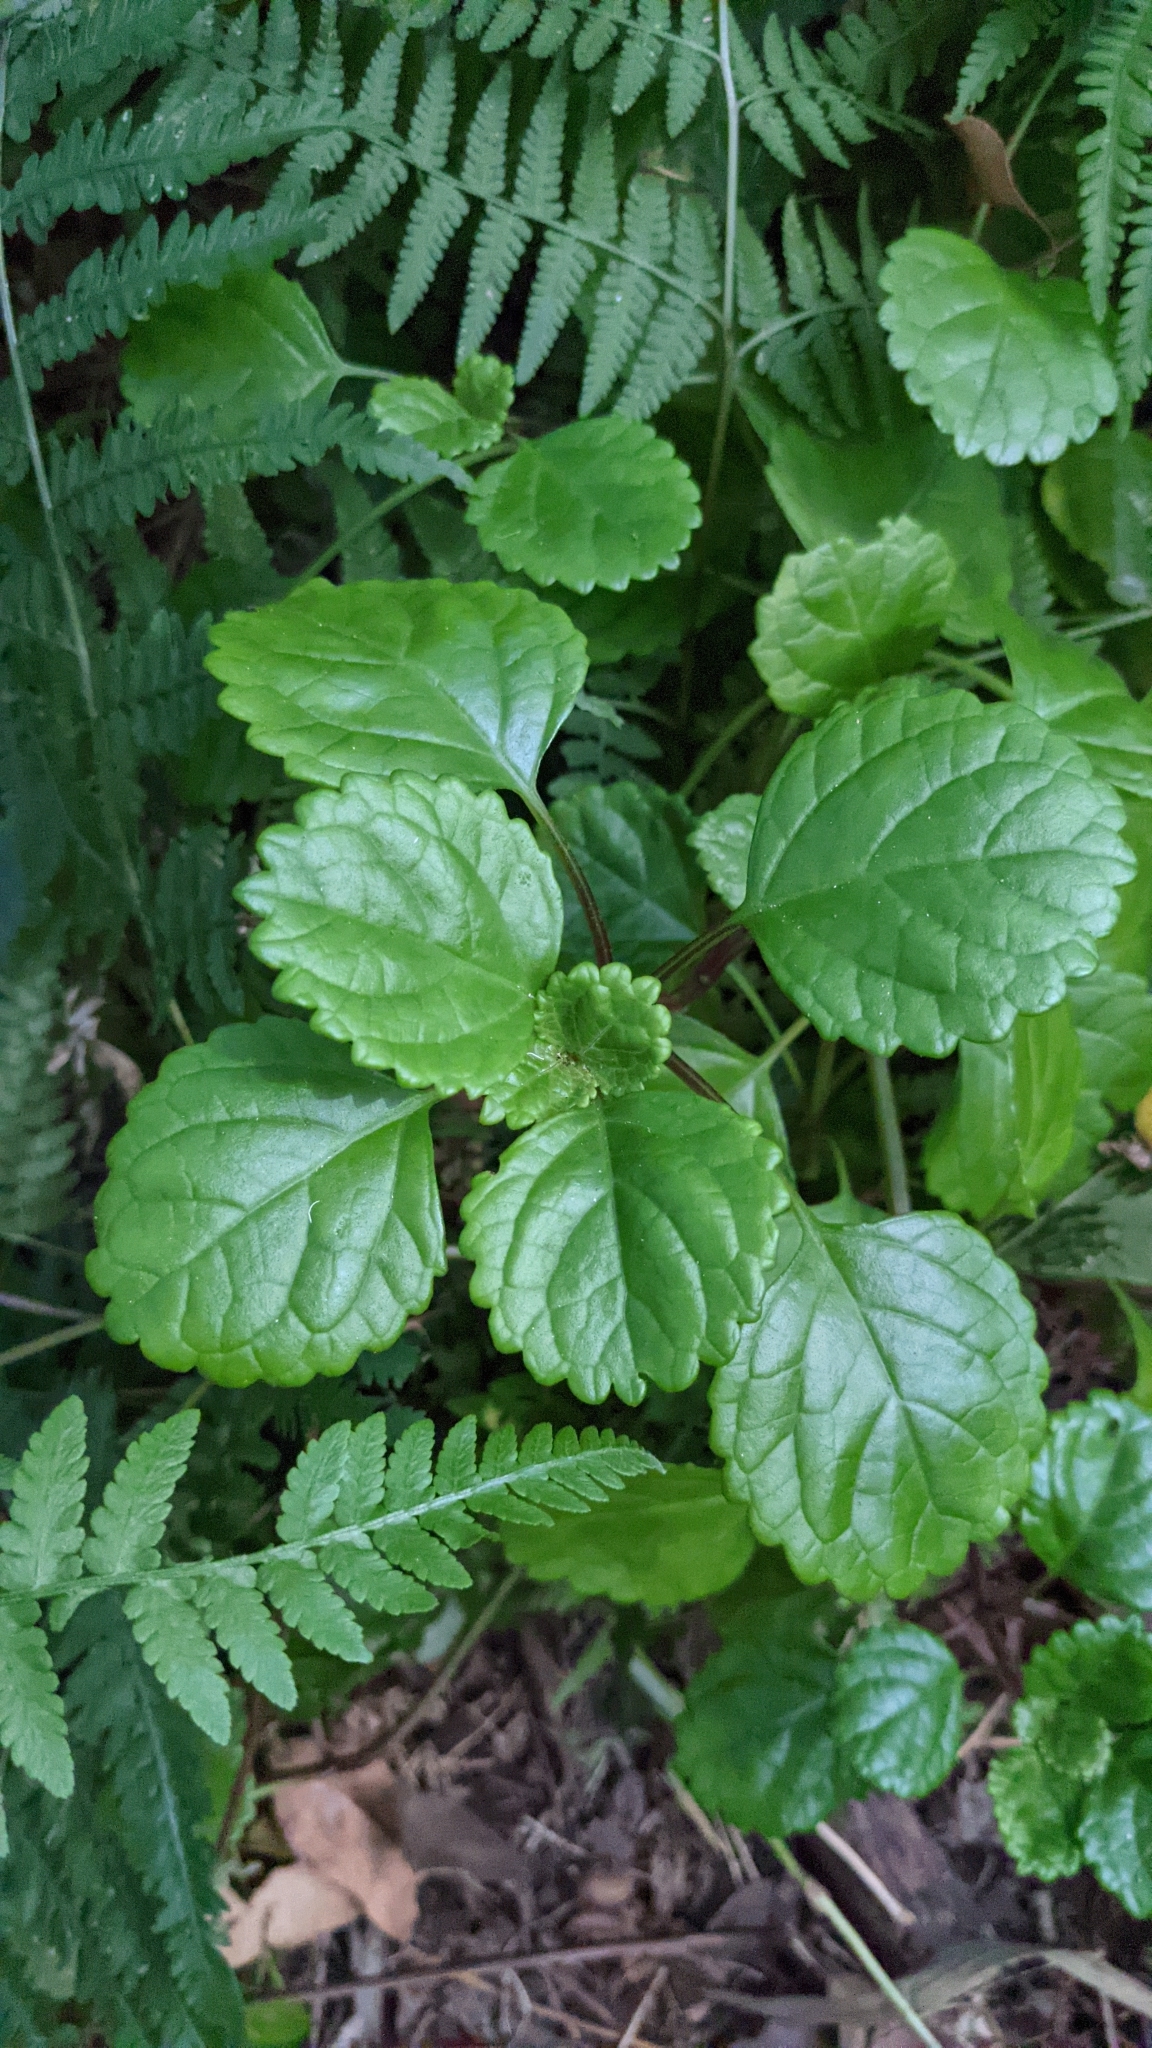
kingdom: Plantae
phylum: Tracheophyta
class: Magnoliopsida
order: Lamiales
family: Lamiaceae
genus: Plectranthus
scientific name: Plectranthus verticillatus
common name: Whorled plectranthus
